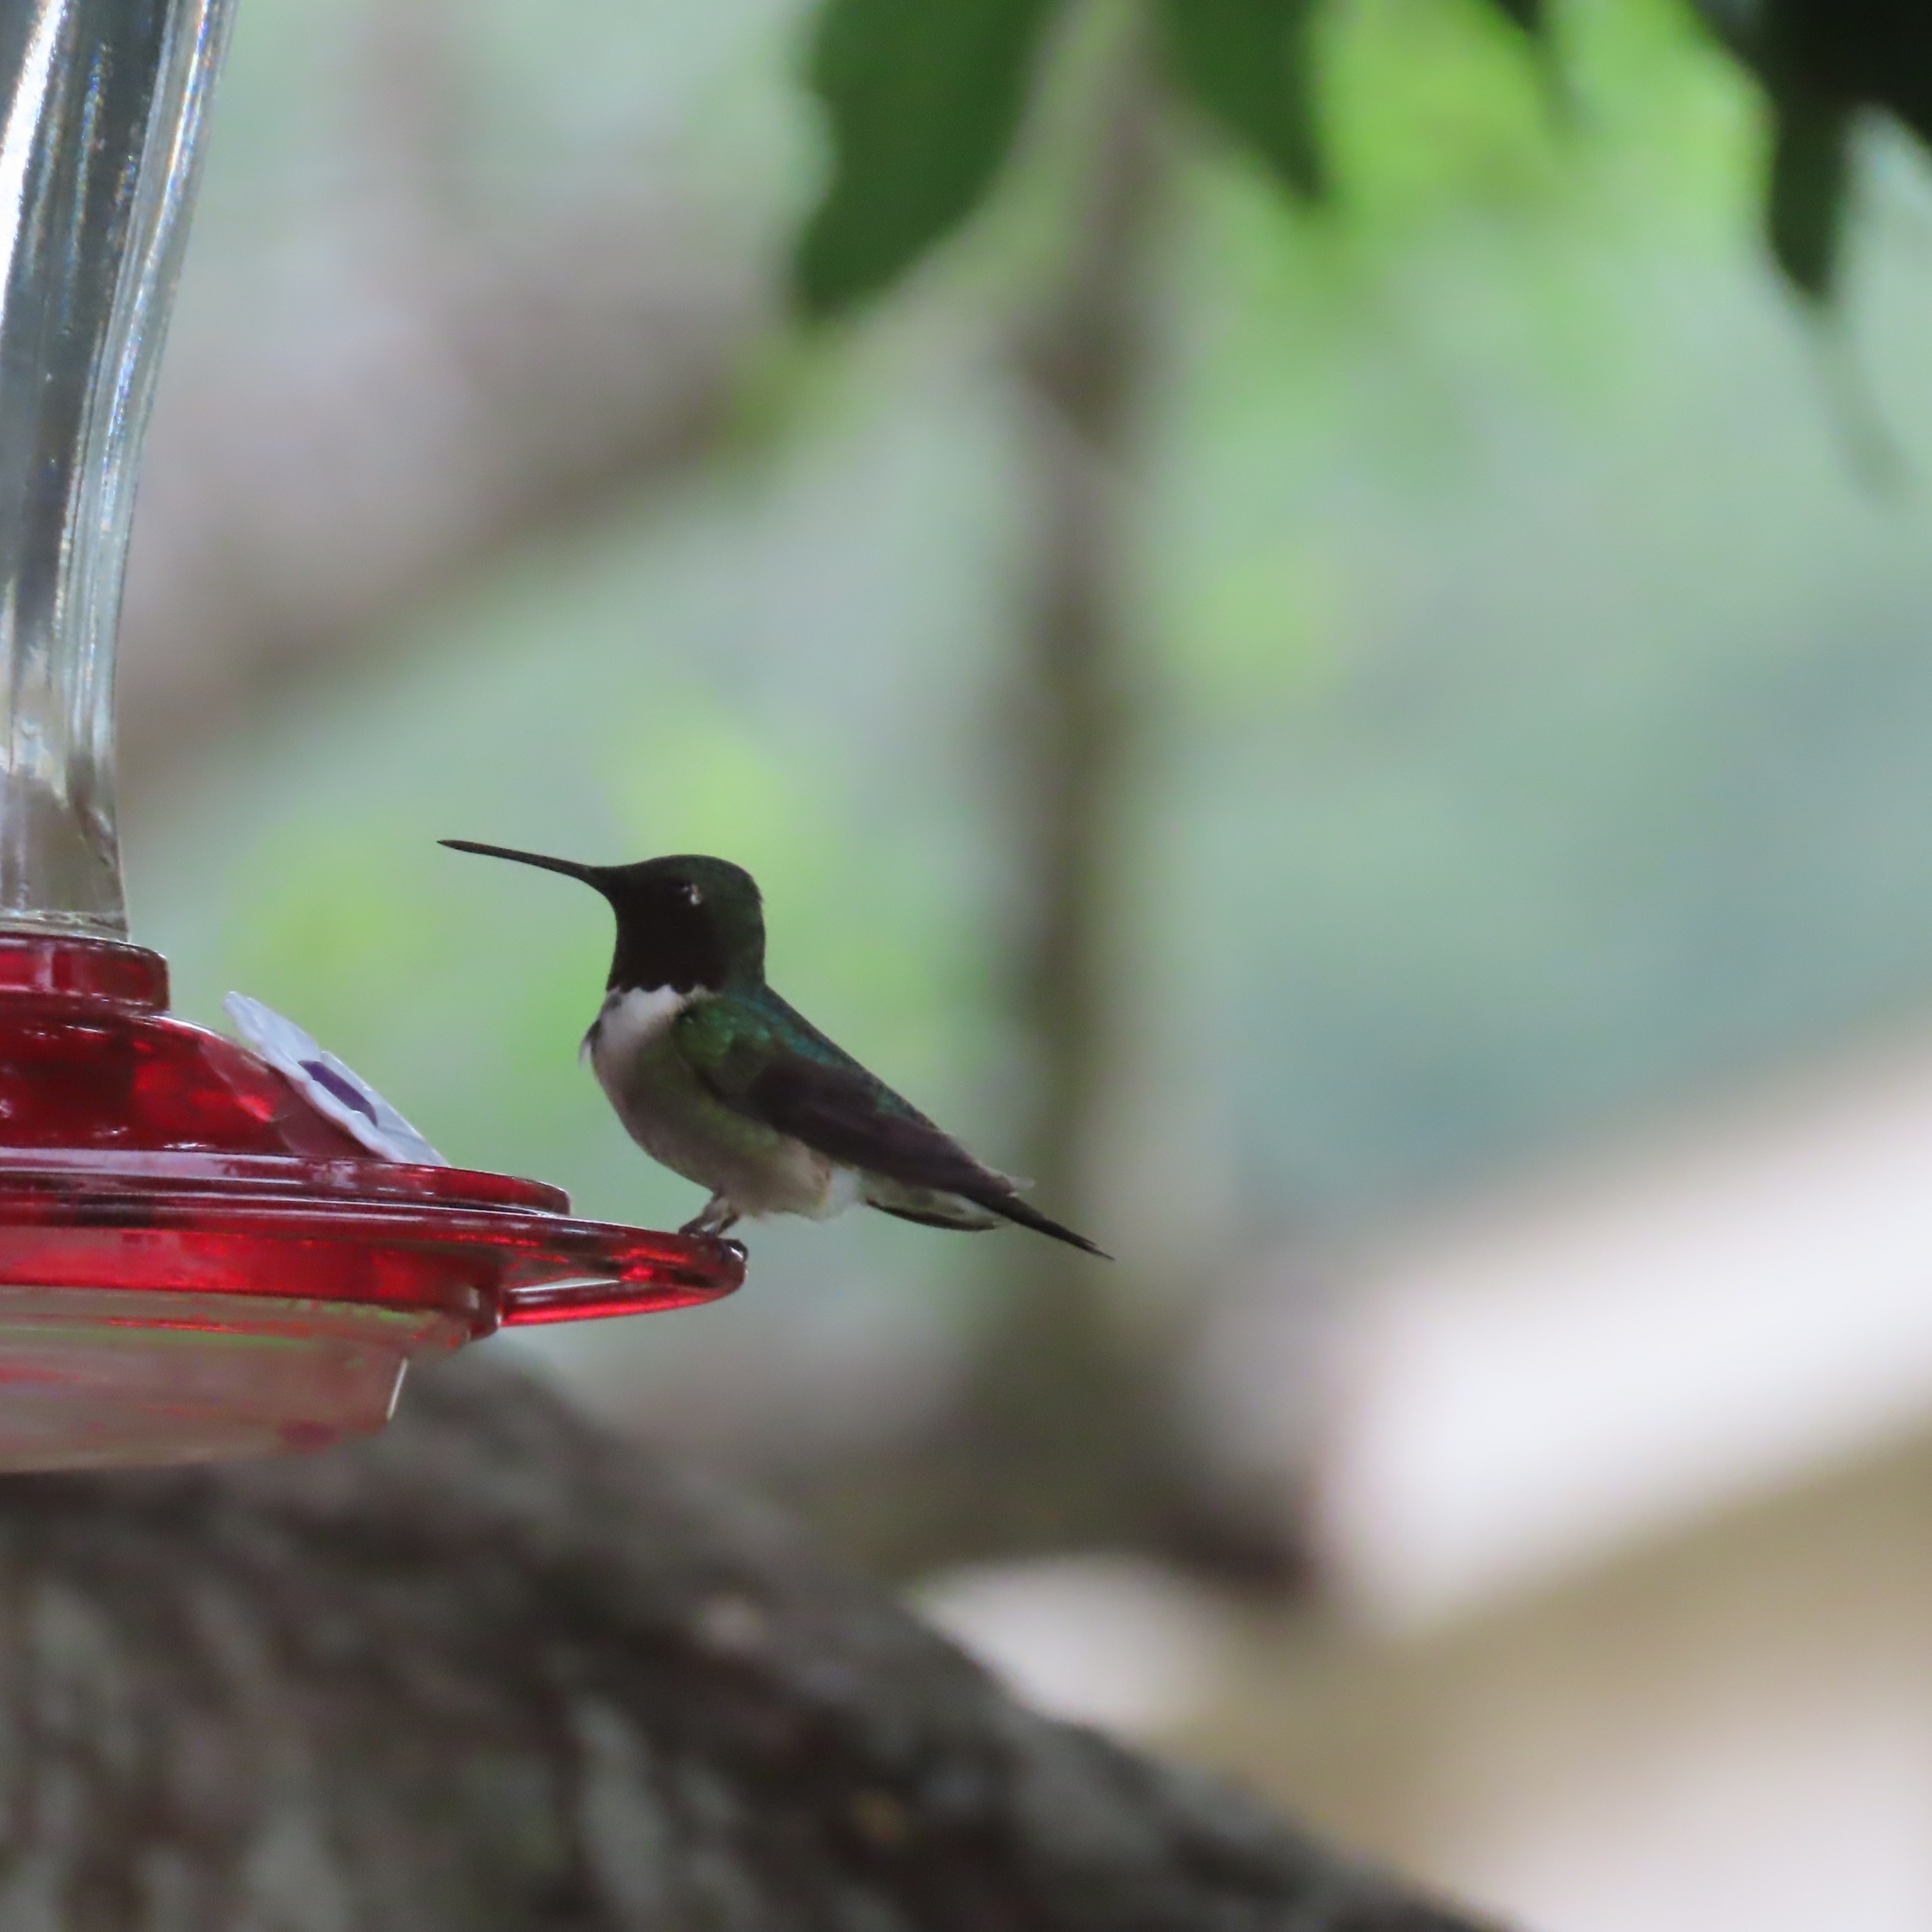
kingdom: Animalia
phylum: Chordata
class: Aves
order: Apodiformes
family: Trochilidae
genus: Archilochus
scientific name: Archilochus colubris
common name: Ruby-throated hummingbird
